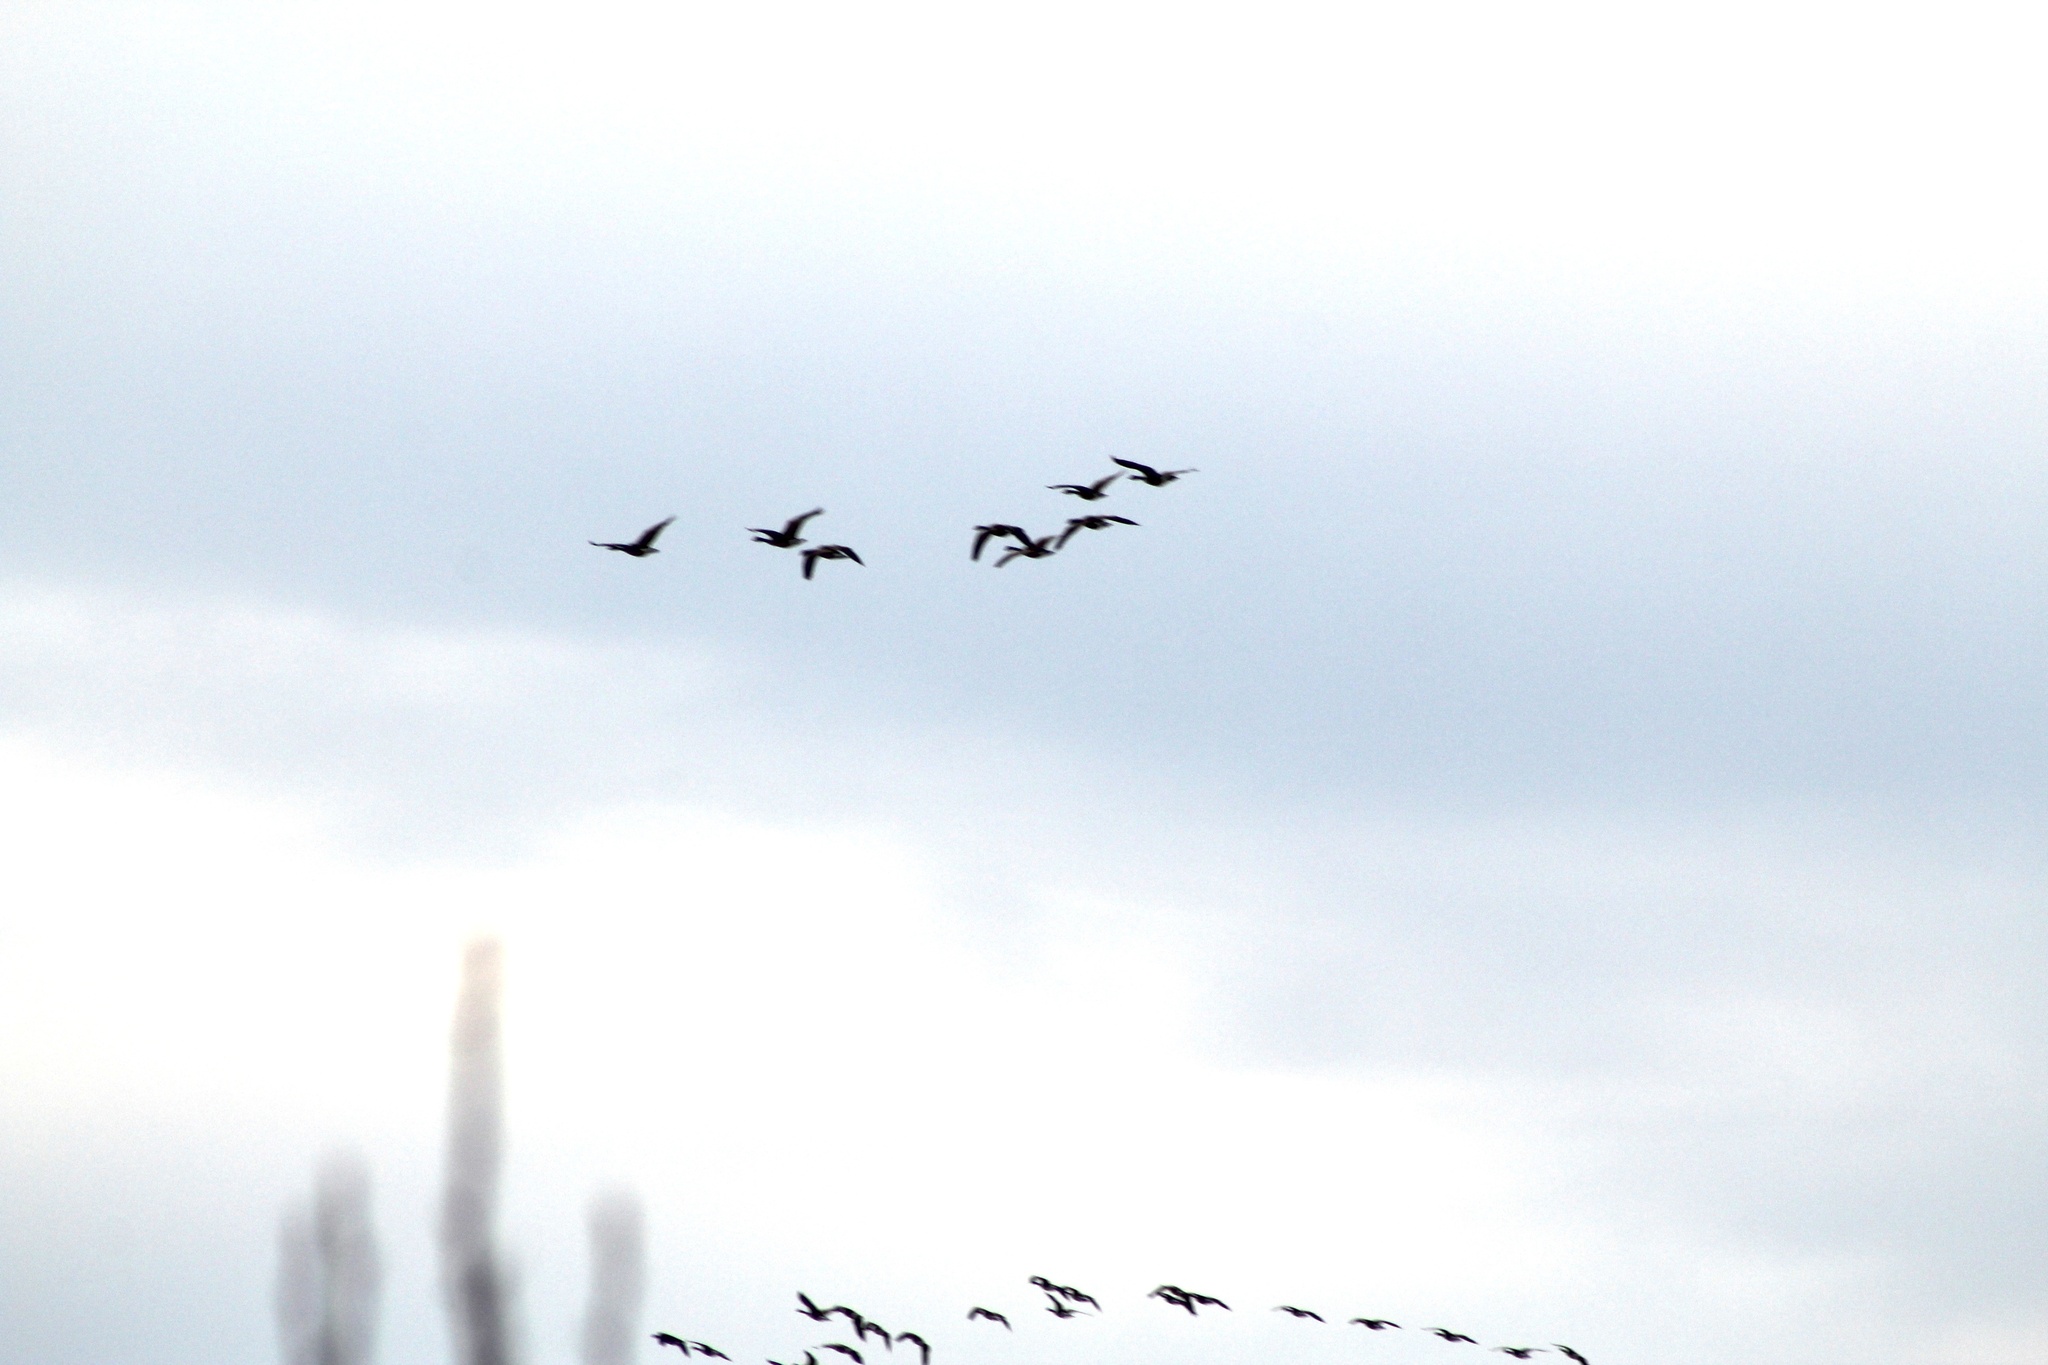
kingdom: Animalia
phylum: Chordata
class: Aves
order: Anseriformes
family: Anatidae
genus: Branta
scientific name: Branta canadensis
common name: Canada goose
